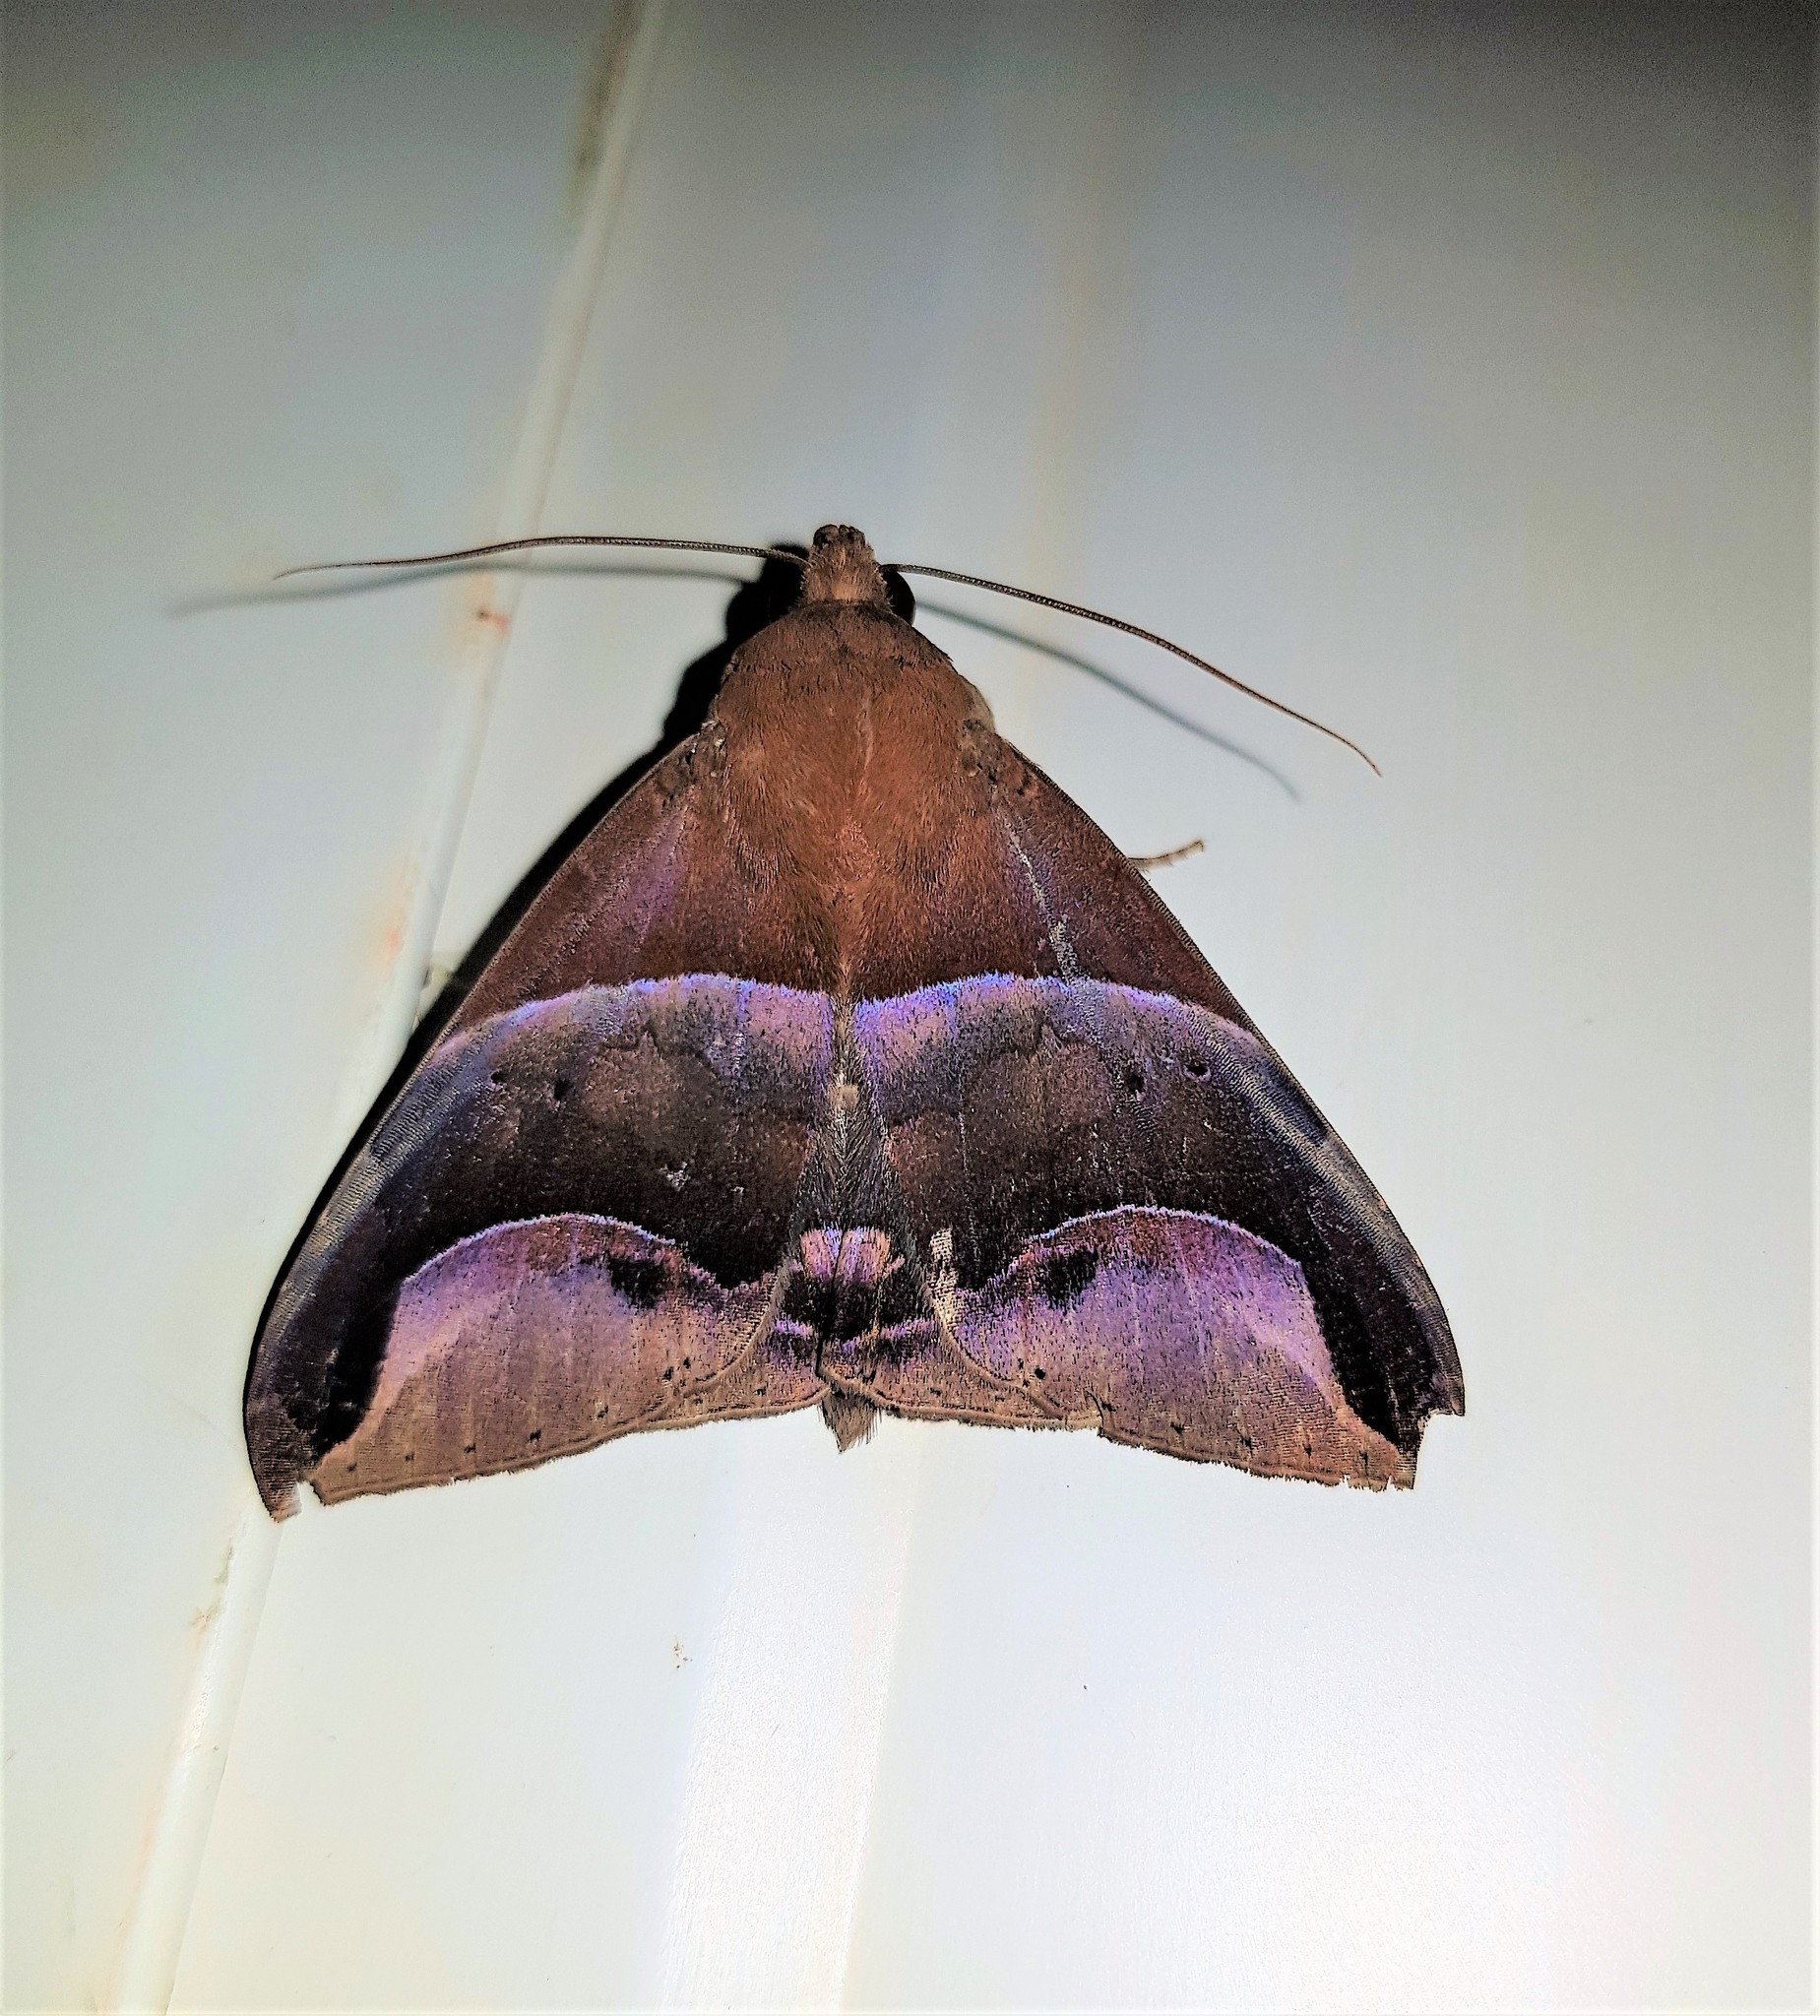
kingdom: Animalia
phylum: Arthropoda
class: Insecta
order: Lepidoptera
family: Erebidae
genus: Parachaea
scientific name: Parachaea macaria
